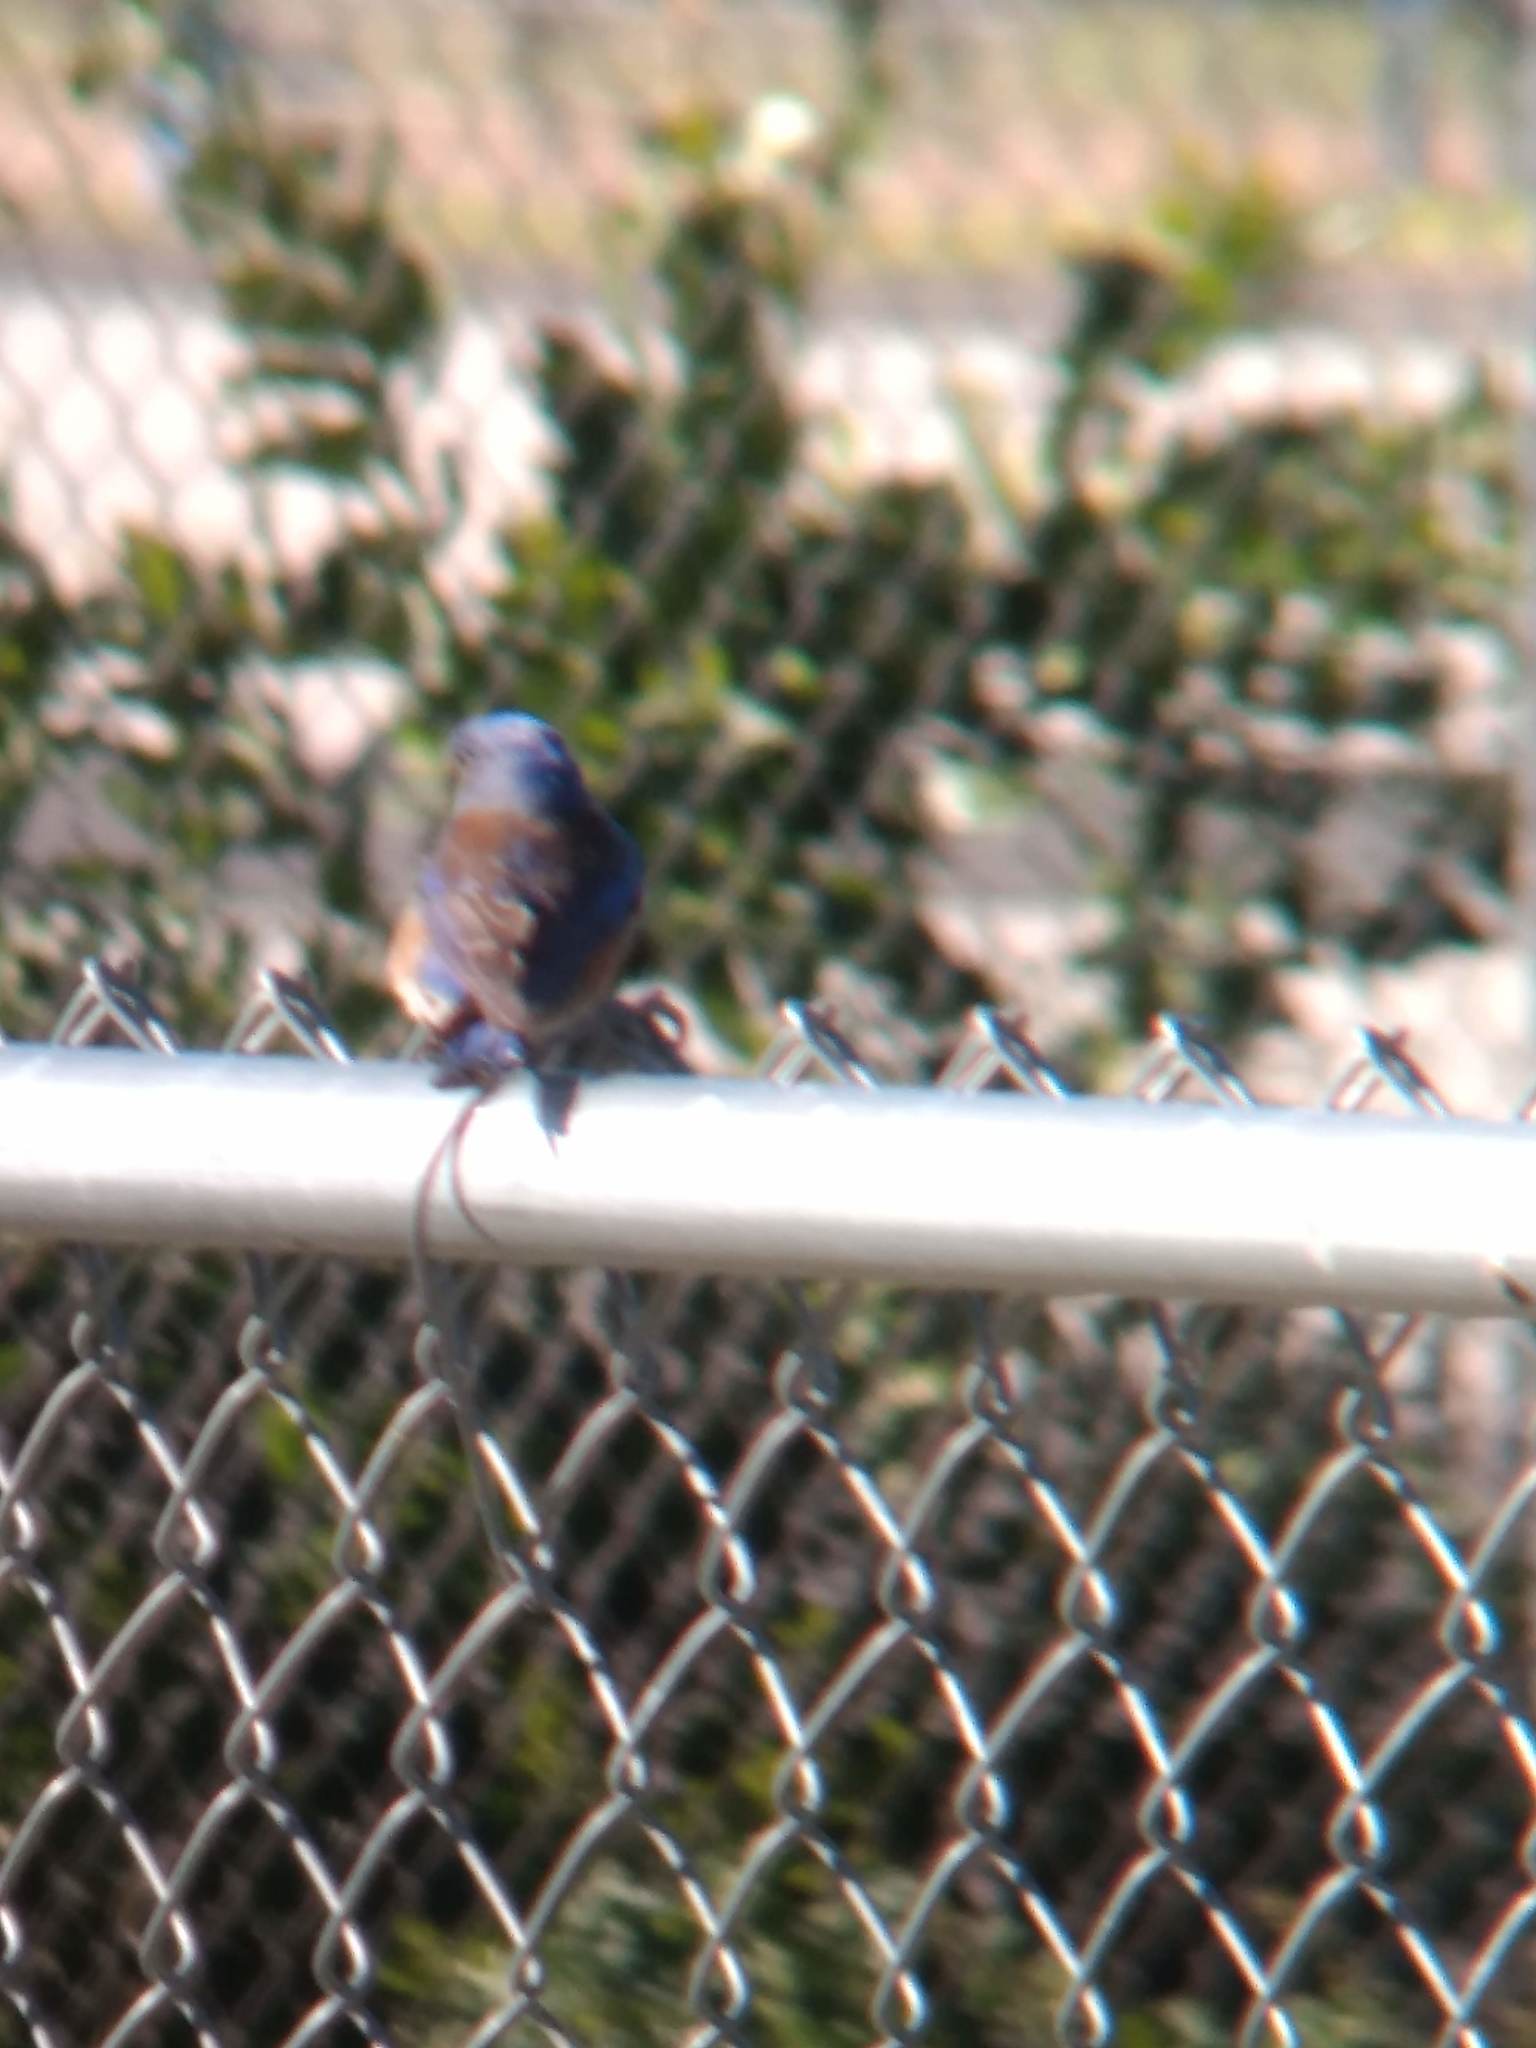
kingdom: Animalia
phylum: Chordata
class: Aves
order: Passeriformes
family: Turdidae
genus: Sialia
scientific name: Sialia mexicana
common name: Western bluebird
